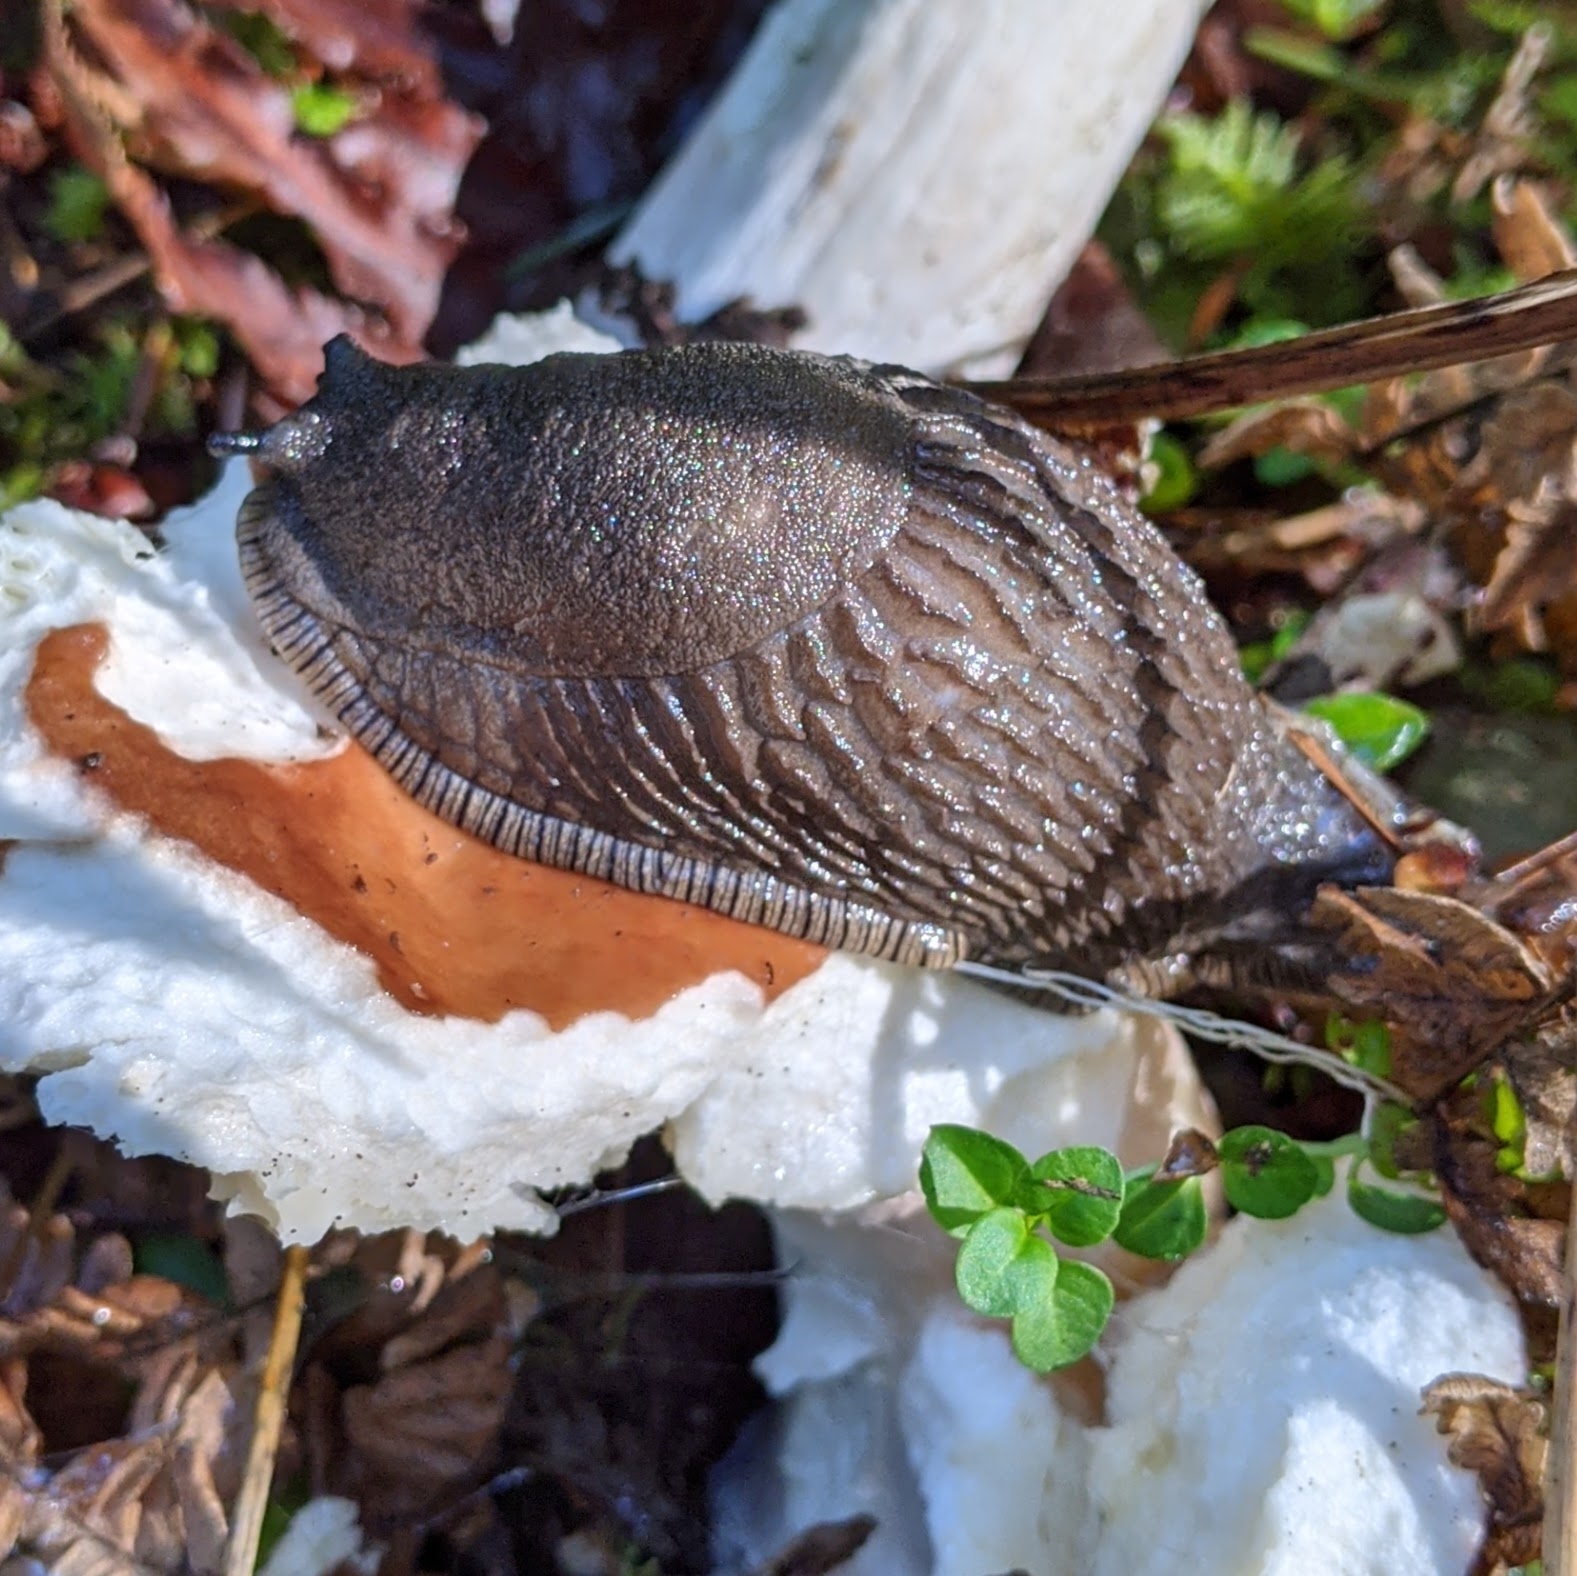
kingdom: Animalia
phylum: Mollusca
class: Gastropoda
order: Stylommatophora
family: Arionidae
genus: Arion
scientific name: Arion rufus
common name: Chocolate arion
